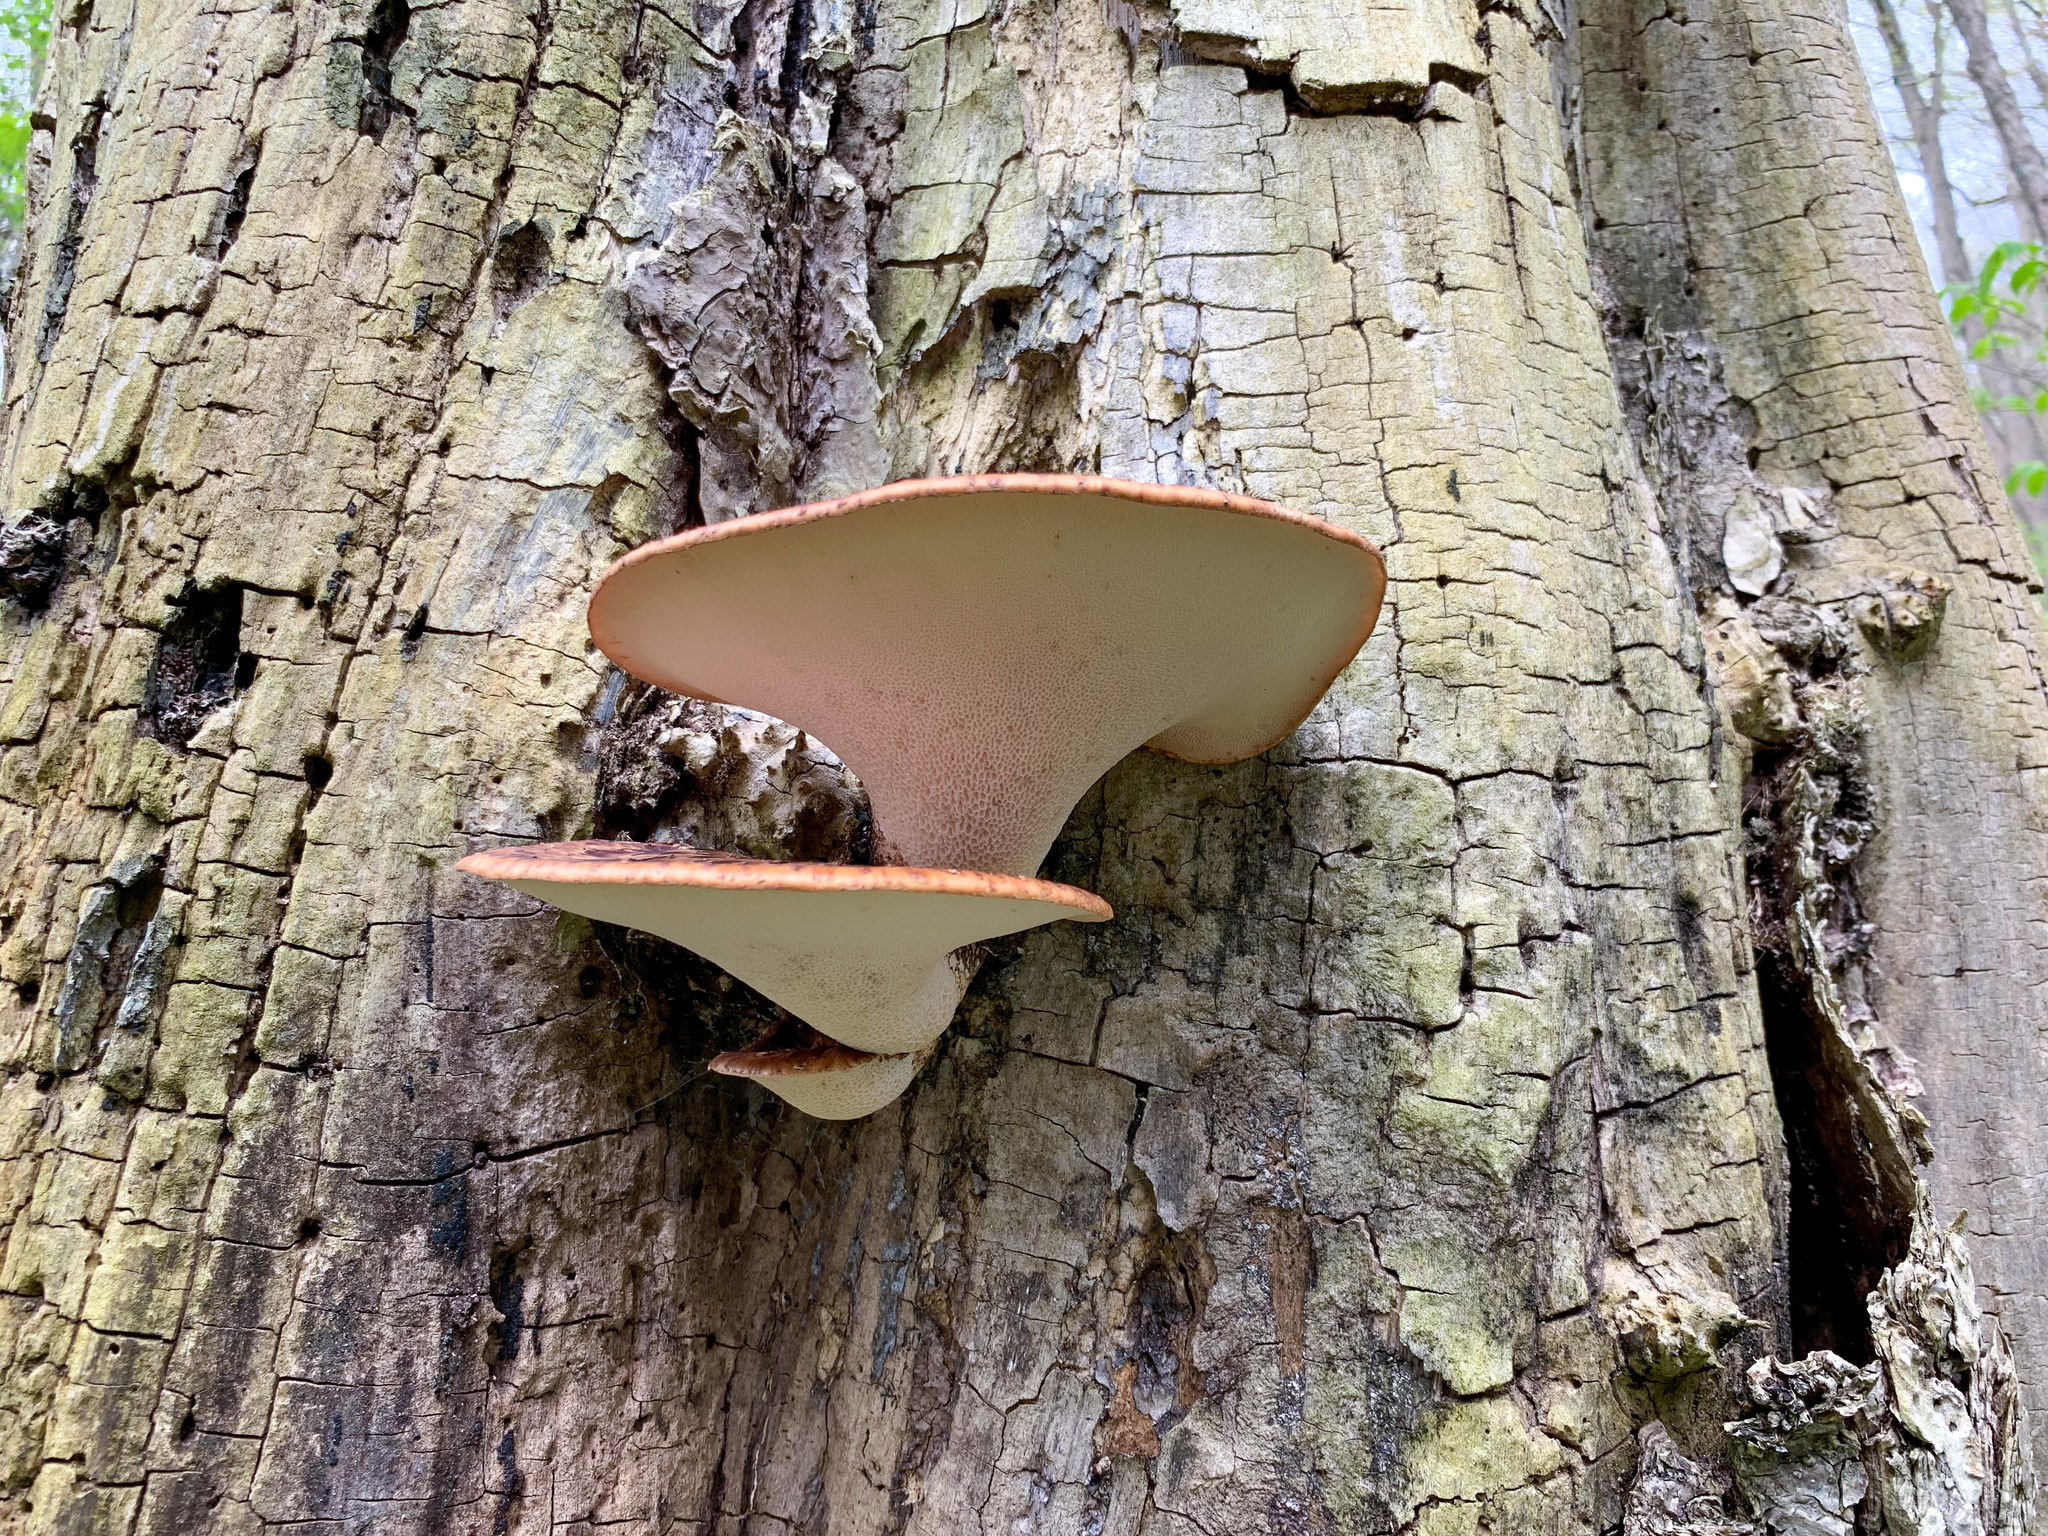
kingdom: Fungi
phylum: Basidiomycota
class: Agaricomycetes
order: Polyporales
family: Polyporaceae
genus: Cerioporus
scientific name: Cerioporus squamosus
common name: Dryad's saddle
